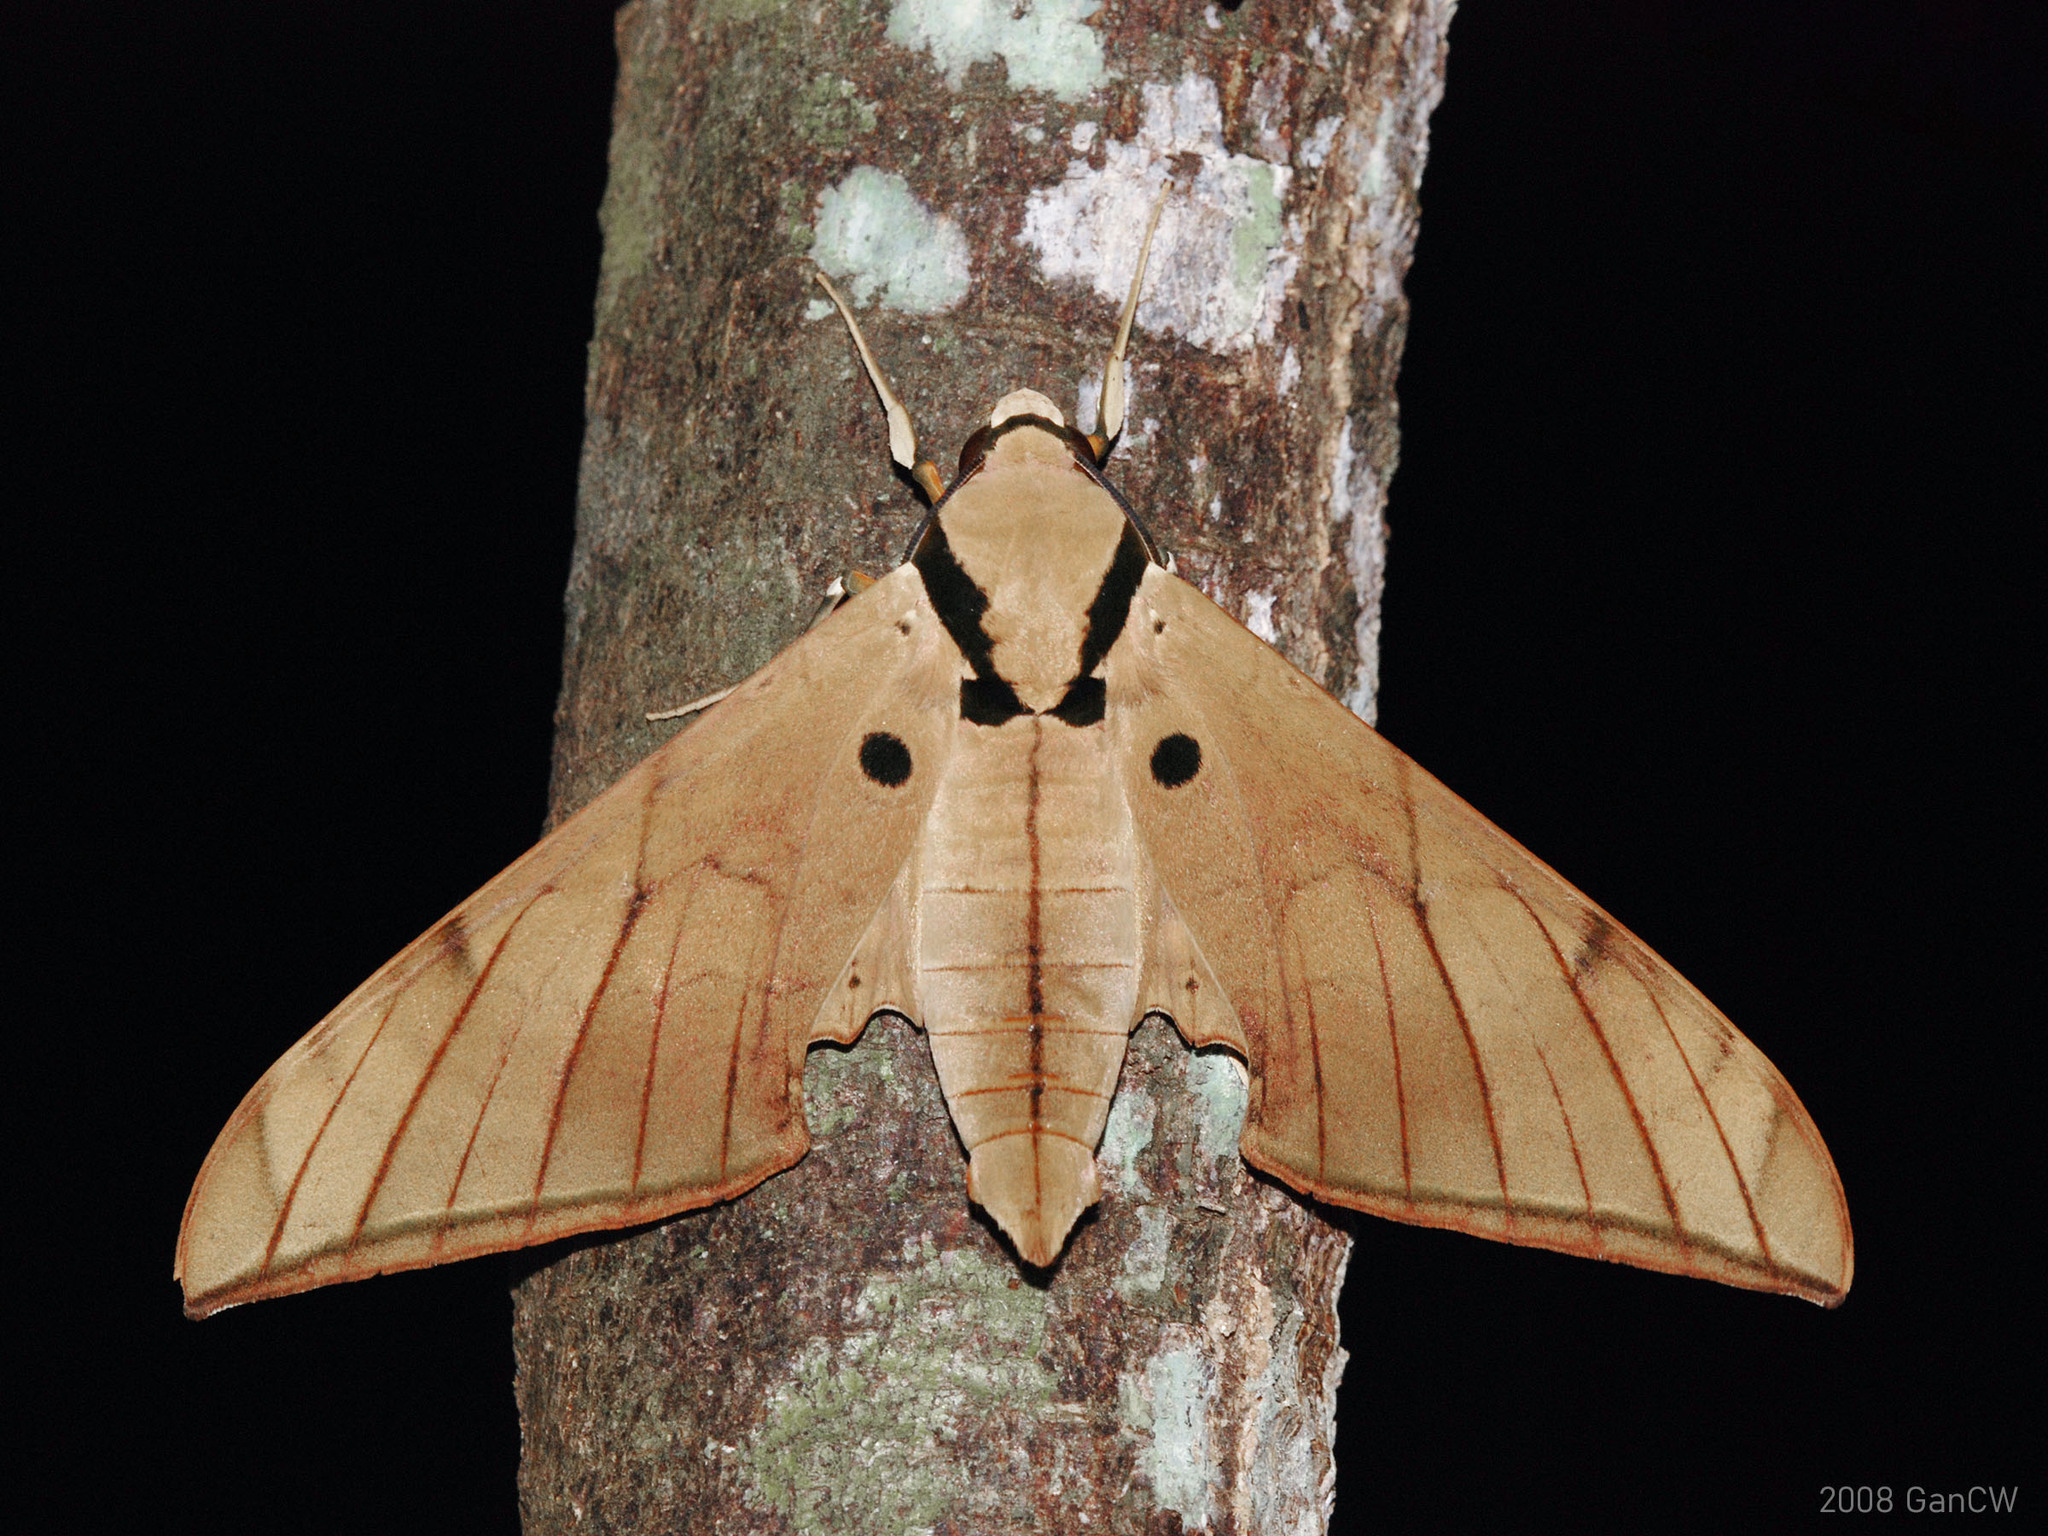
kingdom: Animalia
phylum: Arthropoda
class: Insecta
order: Lepidoptera
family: Sphingidae
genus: Ambulyx
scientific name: Ambulyx pryeri
